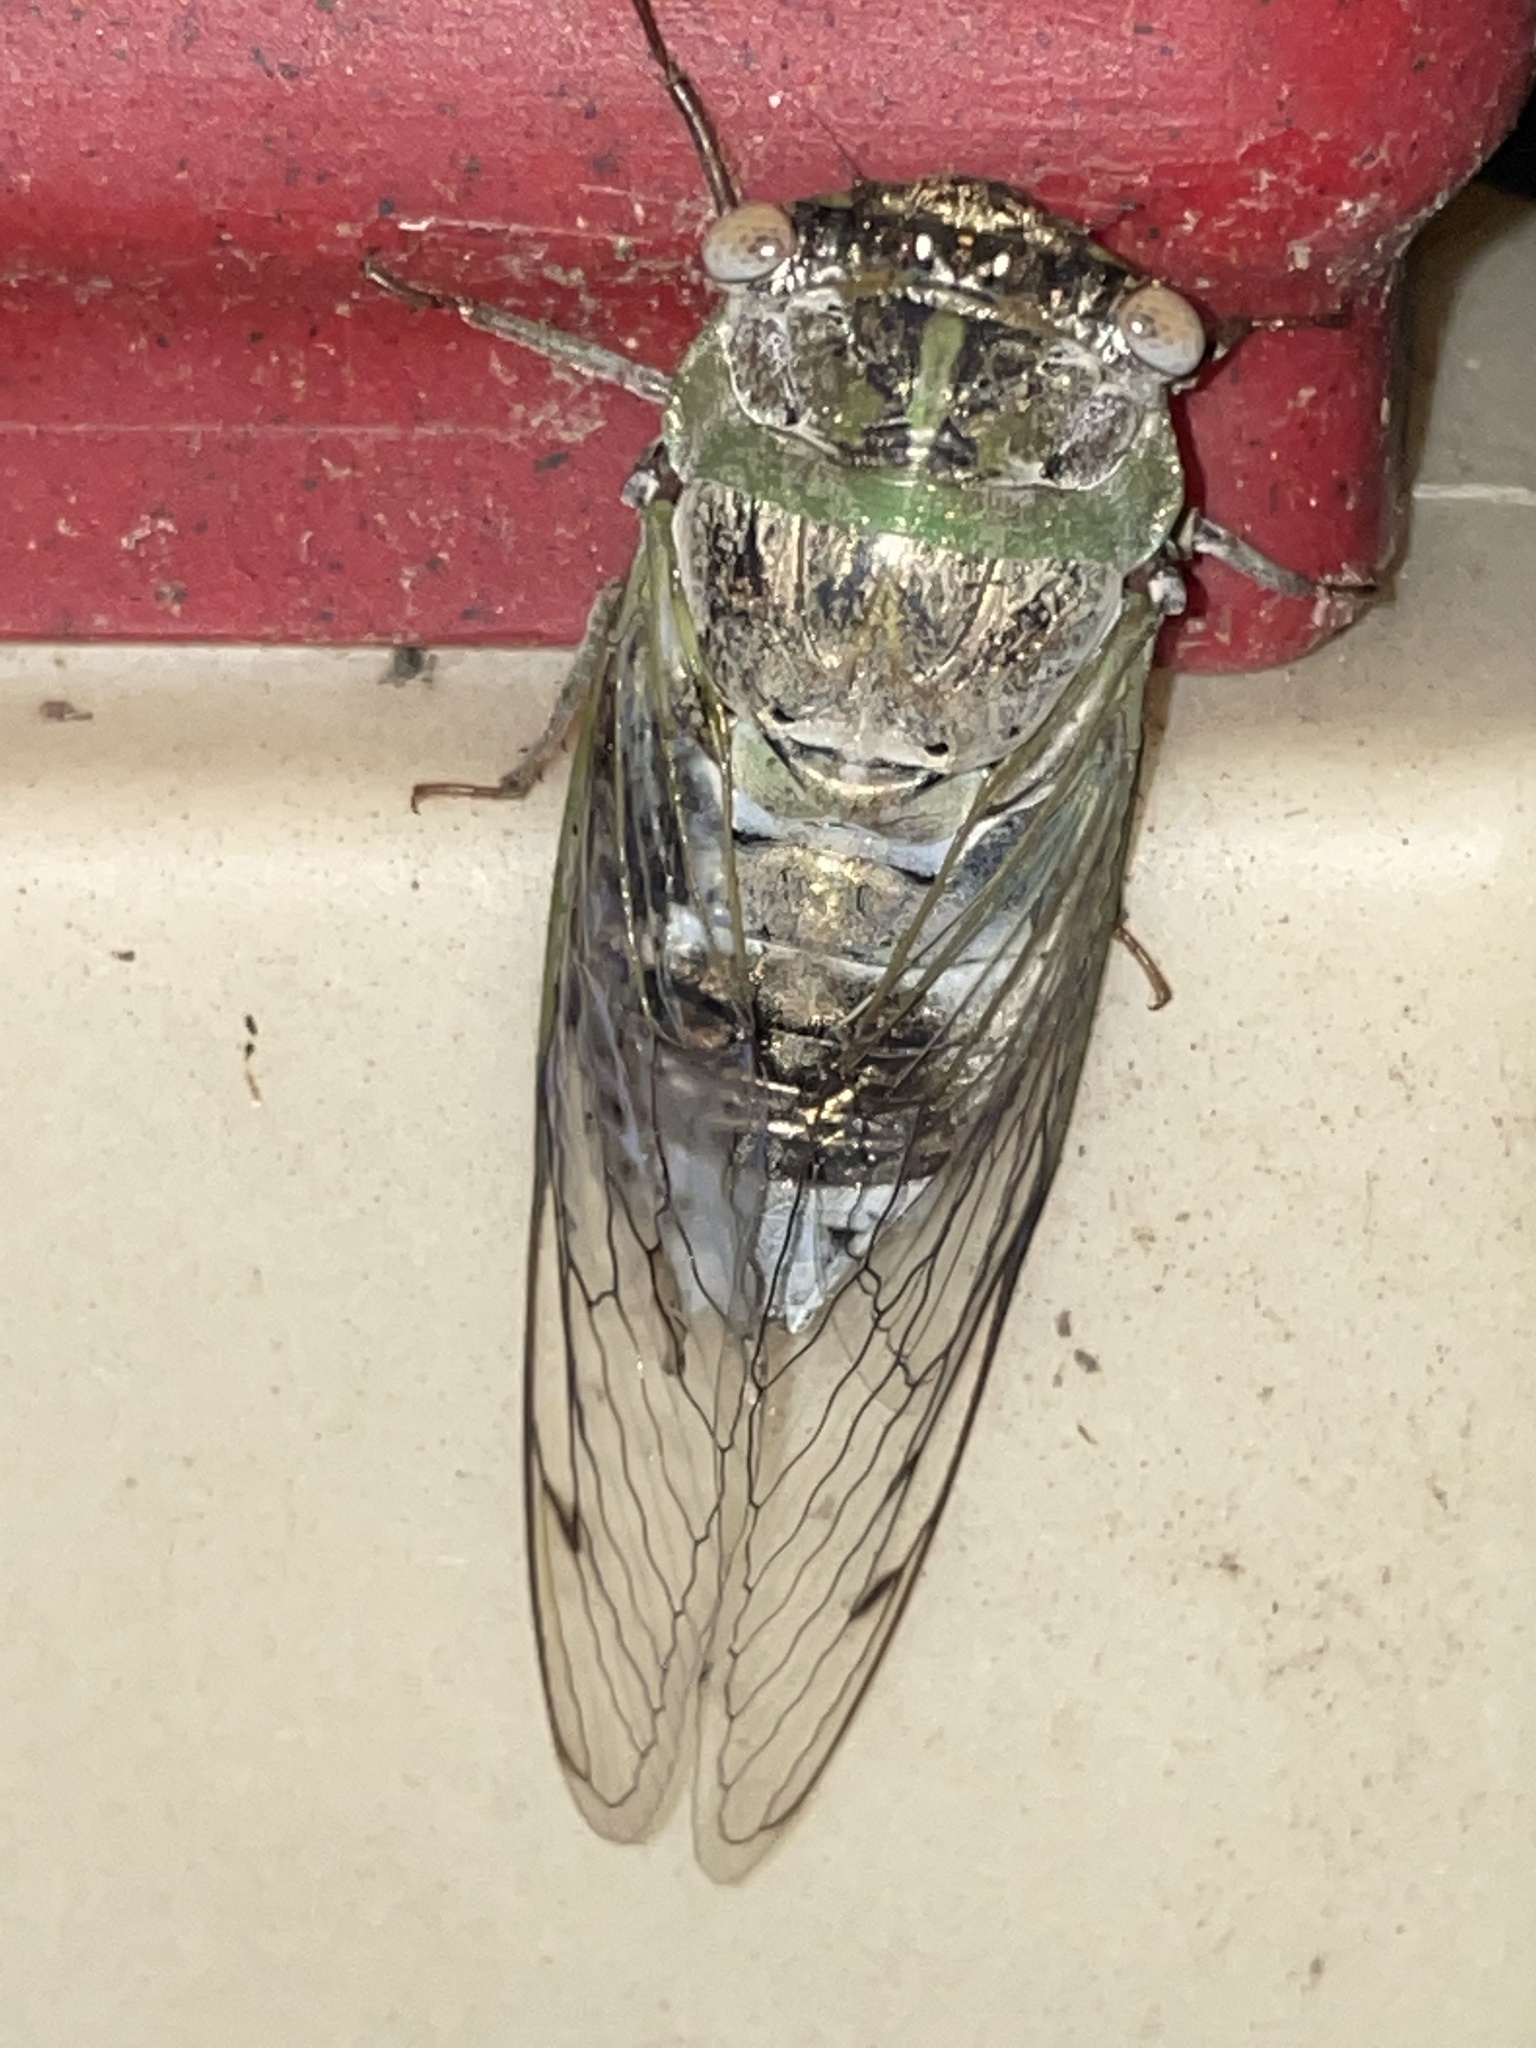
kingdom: Animalia
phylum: Arthropoda
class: Insecta
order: Hemiptera
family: Cicadidae
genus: Diceroprocta
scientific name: Diceroprocta grossa
